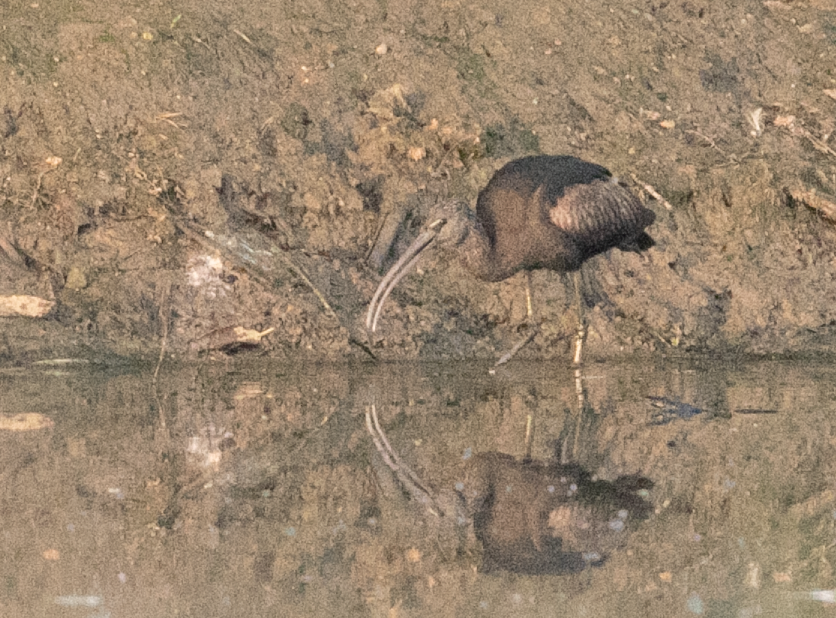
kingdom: Animalia
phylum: Chordata
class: Aves
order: Pelecaniformes
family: Threskiornithidae
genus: Plegadis
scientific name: Plegadis falcinellus
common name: Glossy ibis
